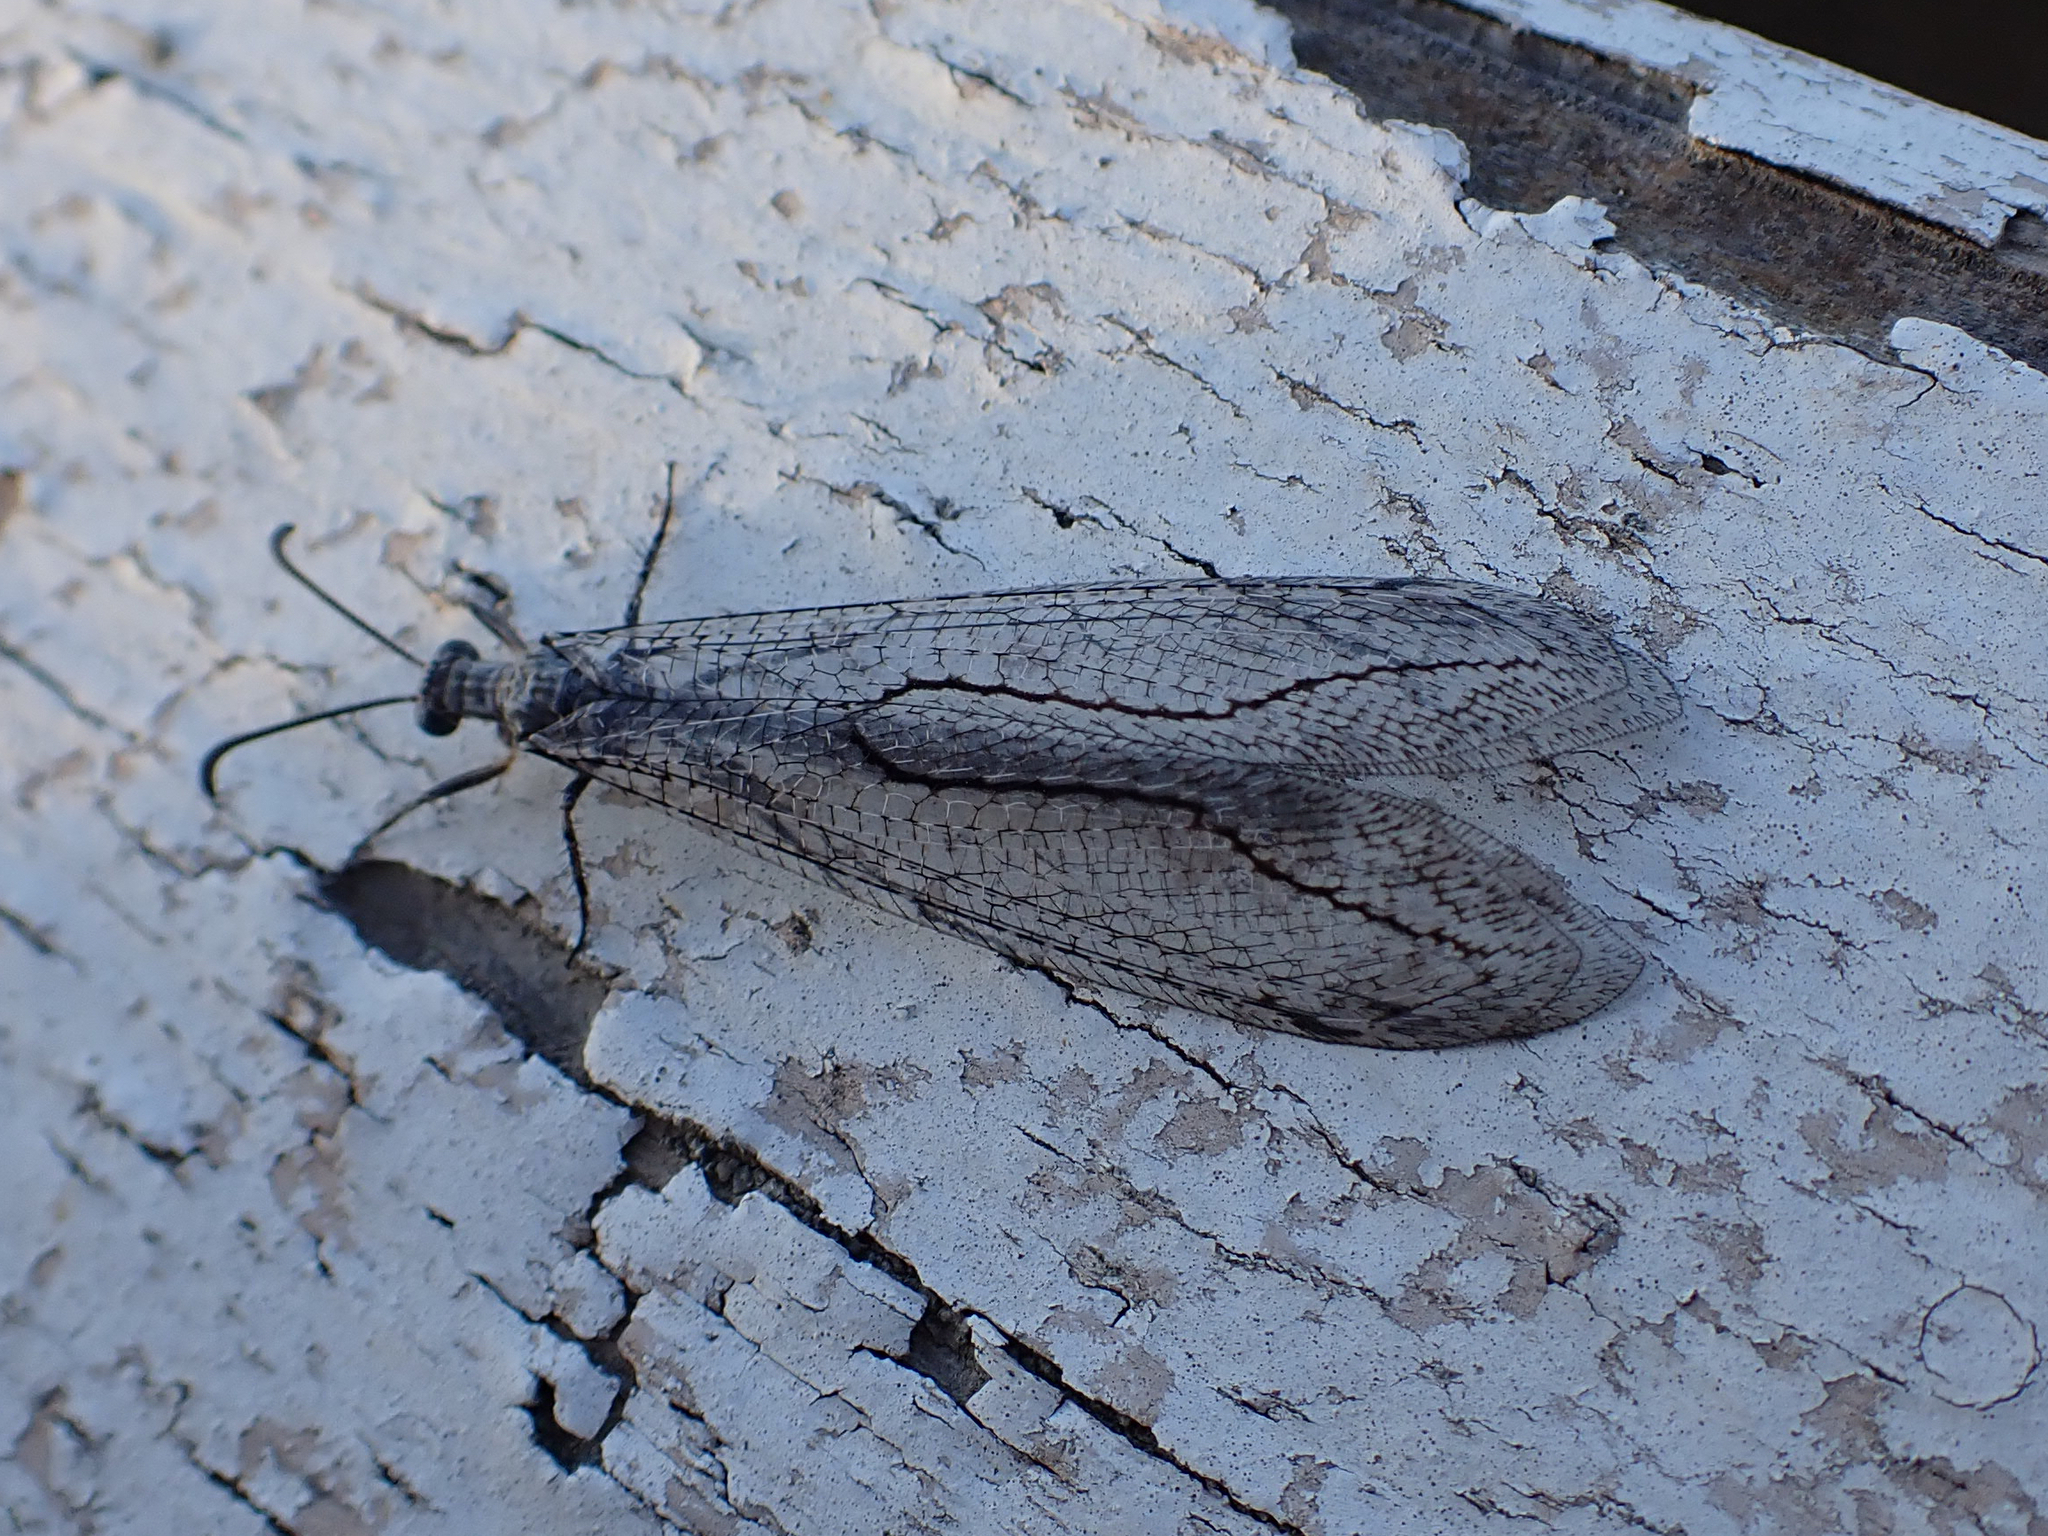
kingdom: Animalia
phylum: Arthropoda
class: Insecta
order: Neuroptera
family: Myrmeleontidae
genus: Purenleon
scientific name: Purenleon albovarius
